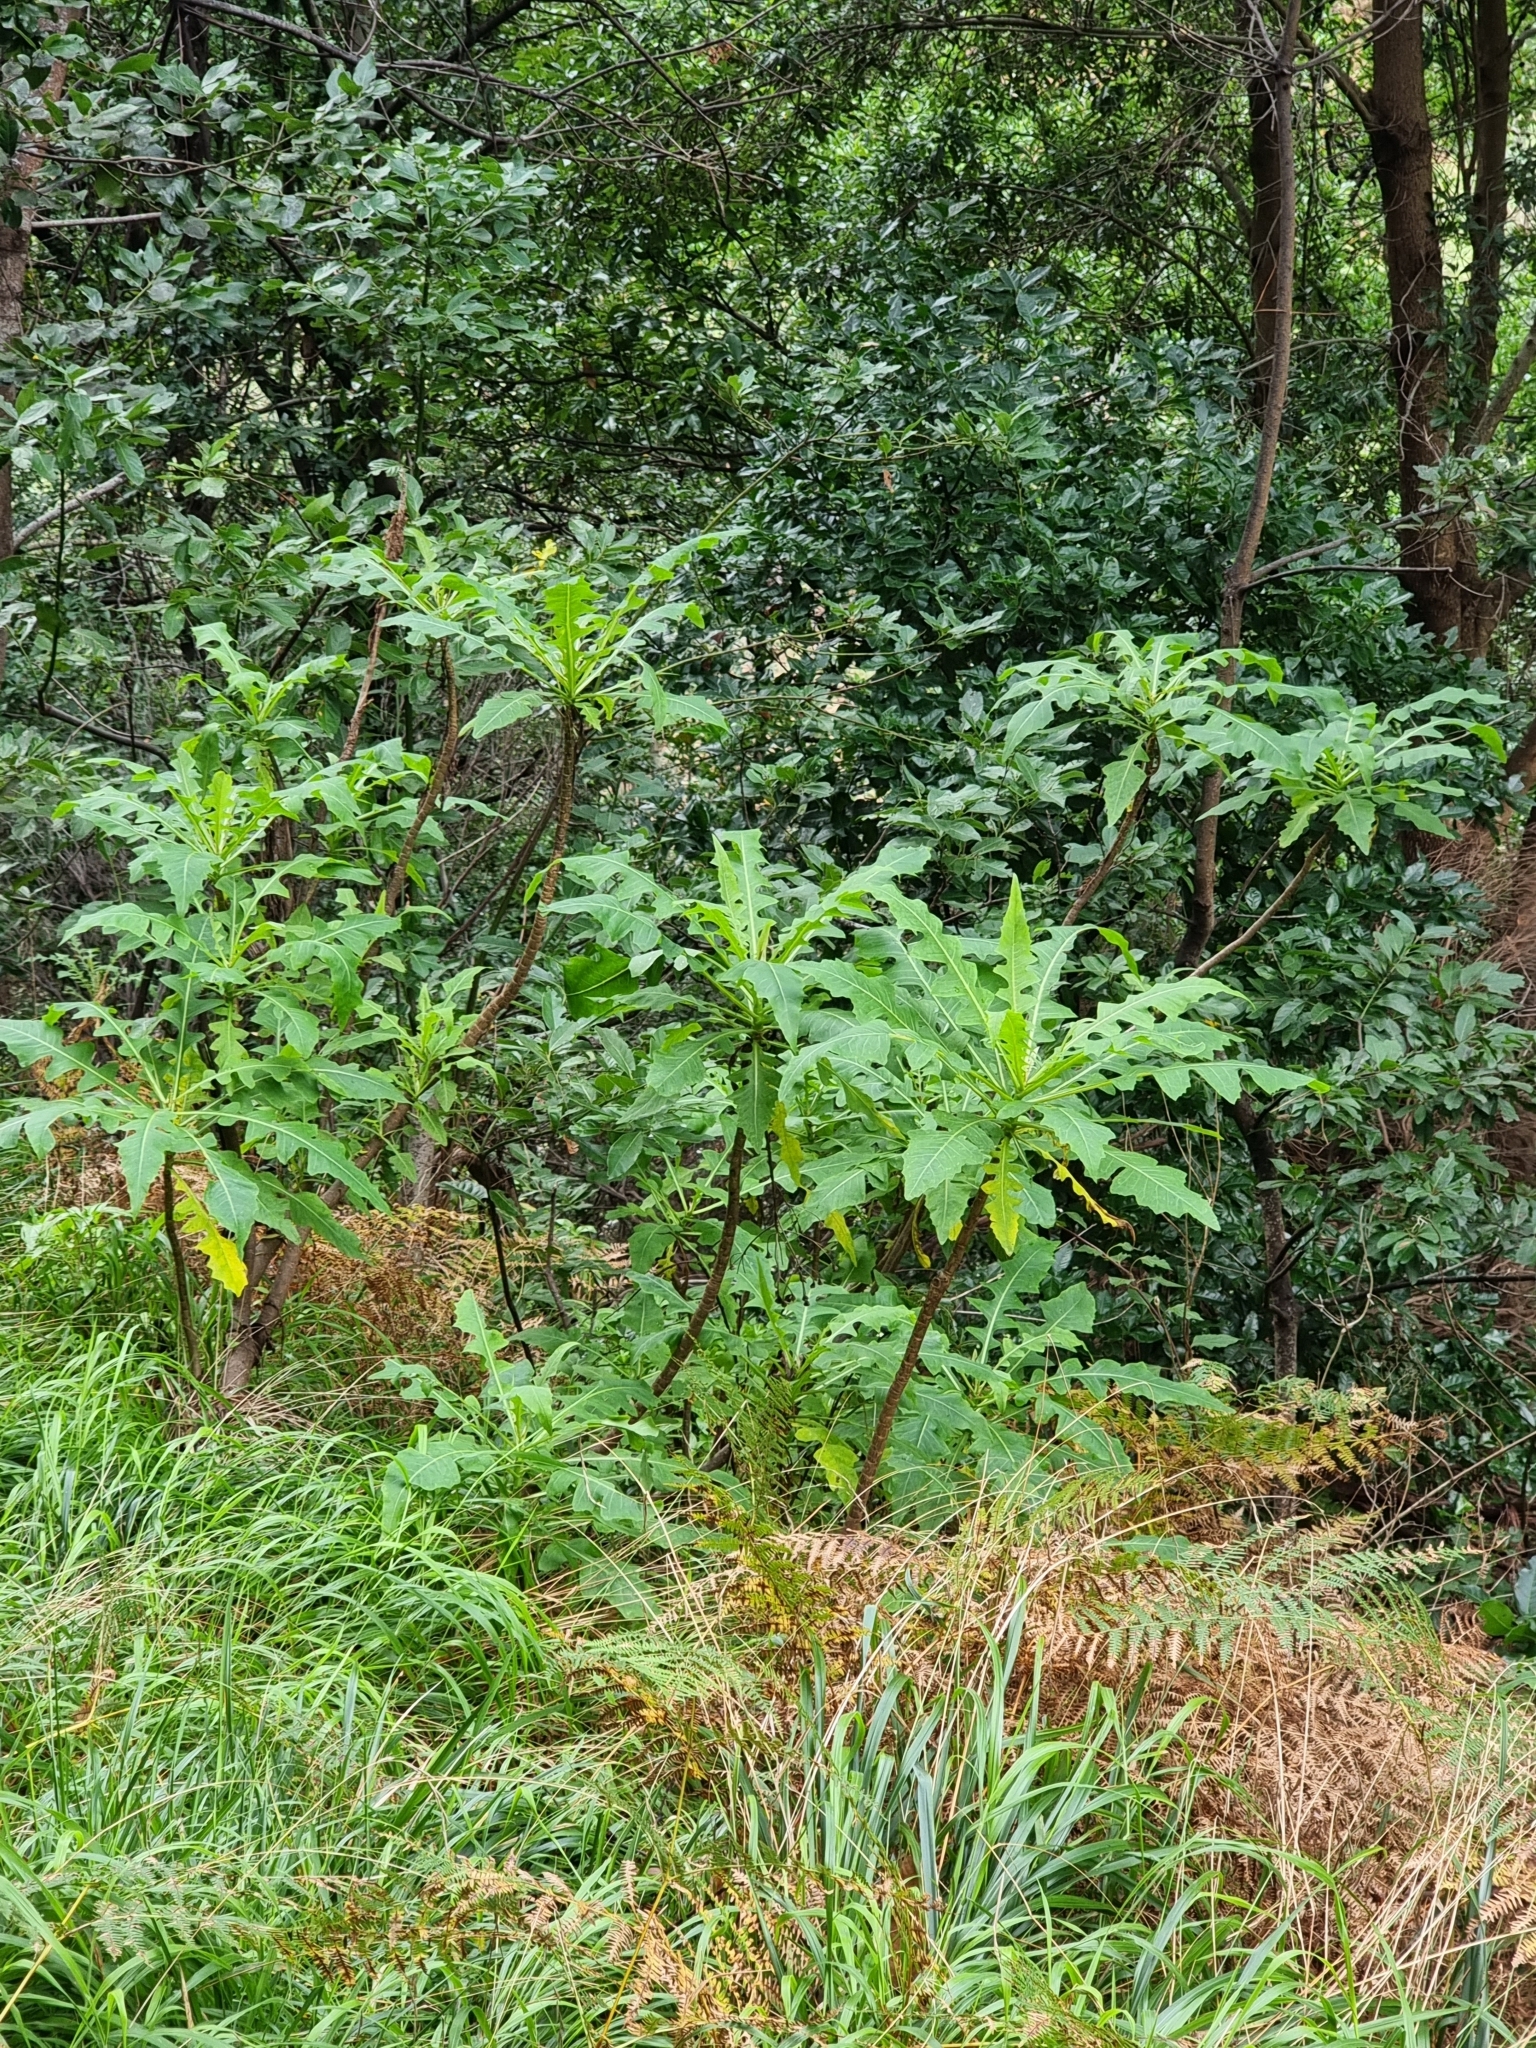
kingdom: Plantae
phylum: Tracheophyta
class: Magnoliopsida
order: Asterales
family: Asteraceae
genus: Sonchus
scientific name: Sonchus fruticosus
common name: Shrubby sow-thistle
